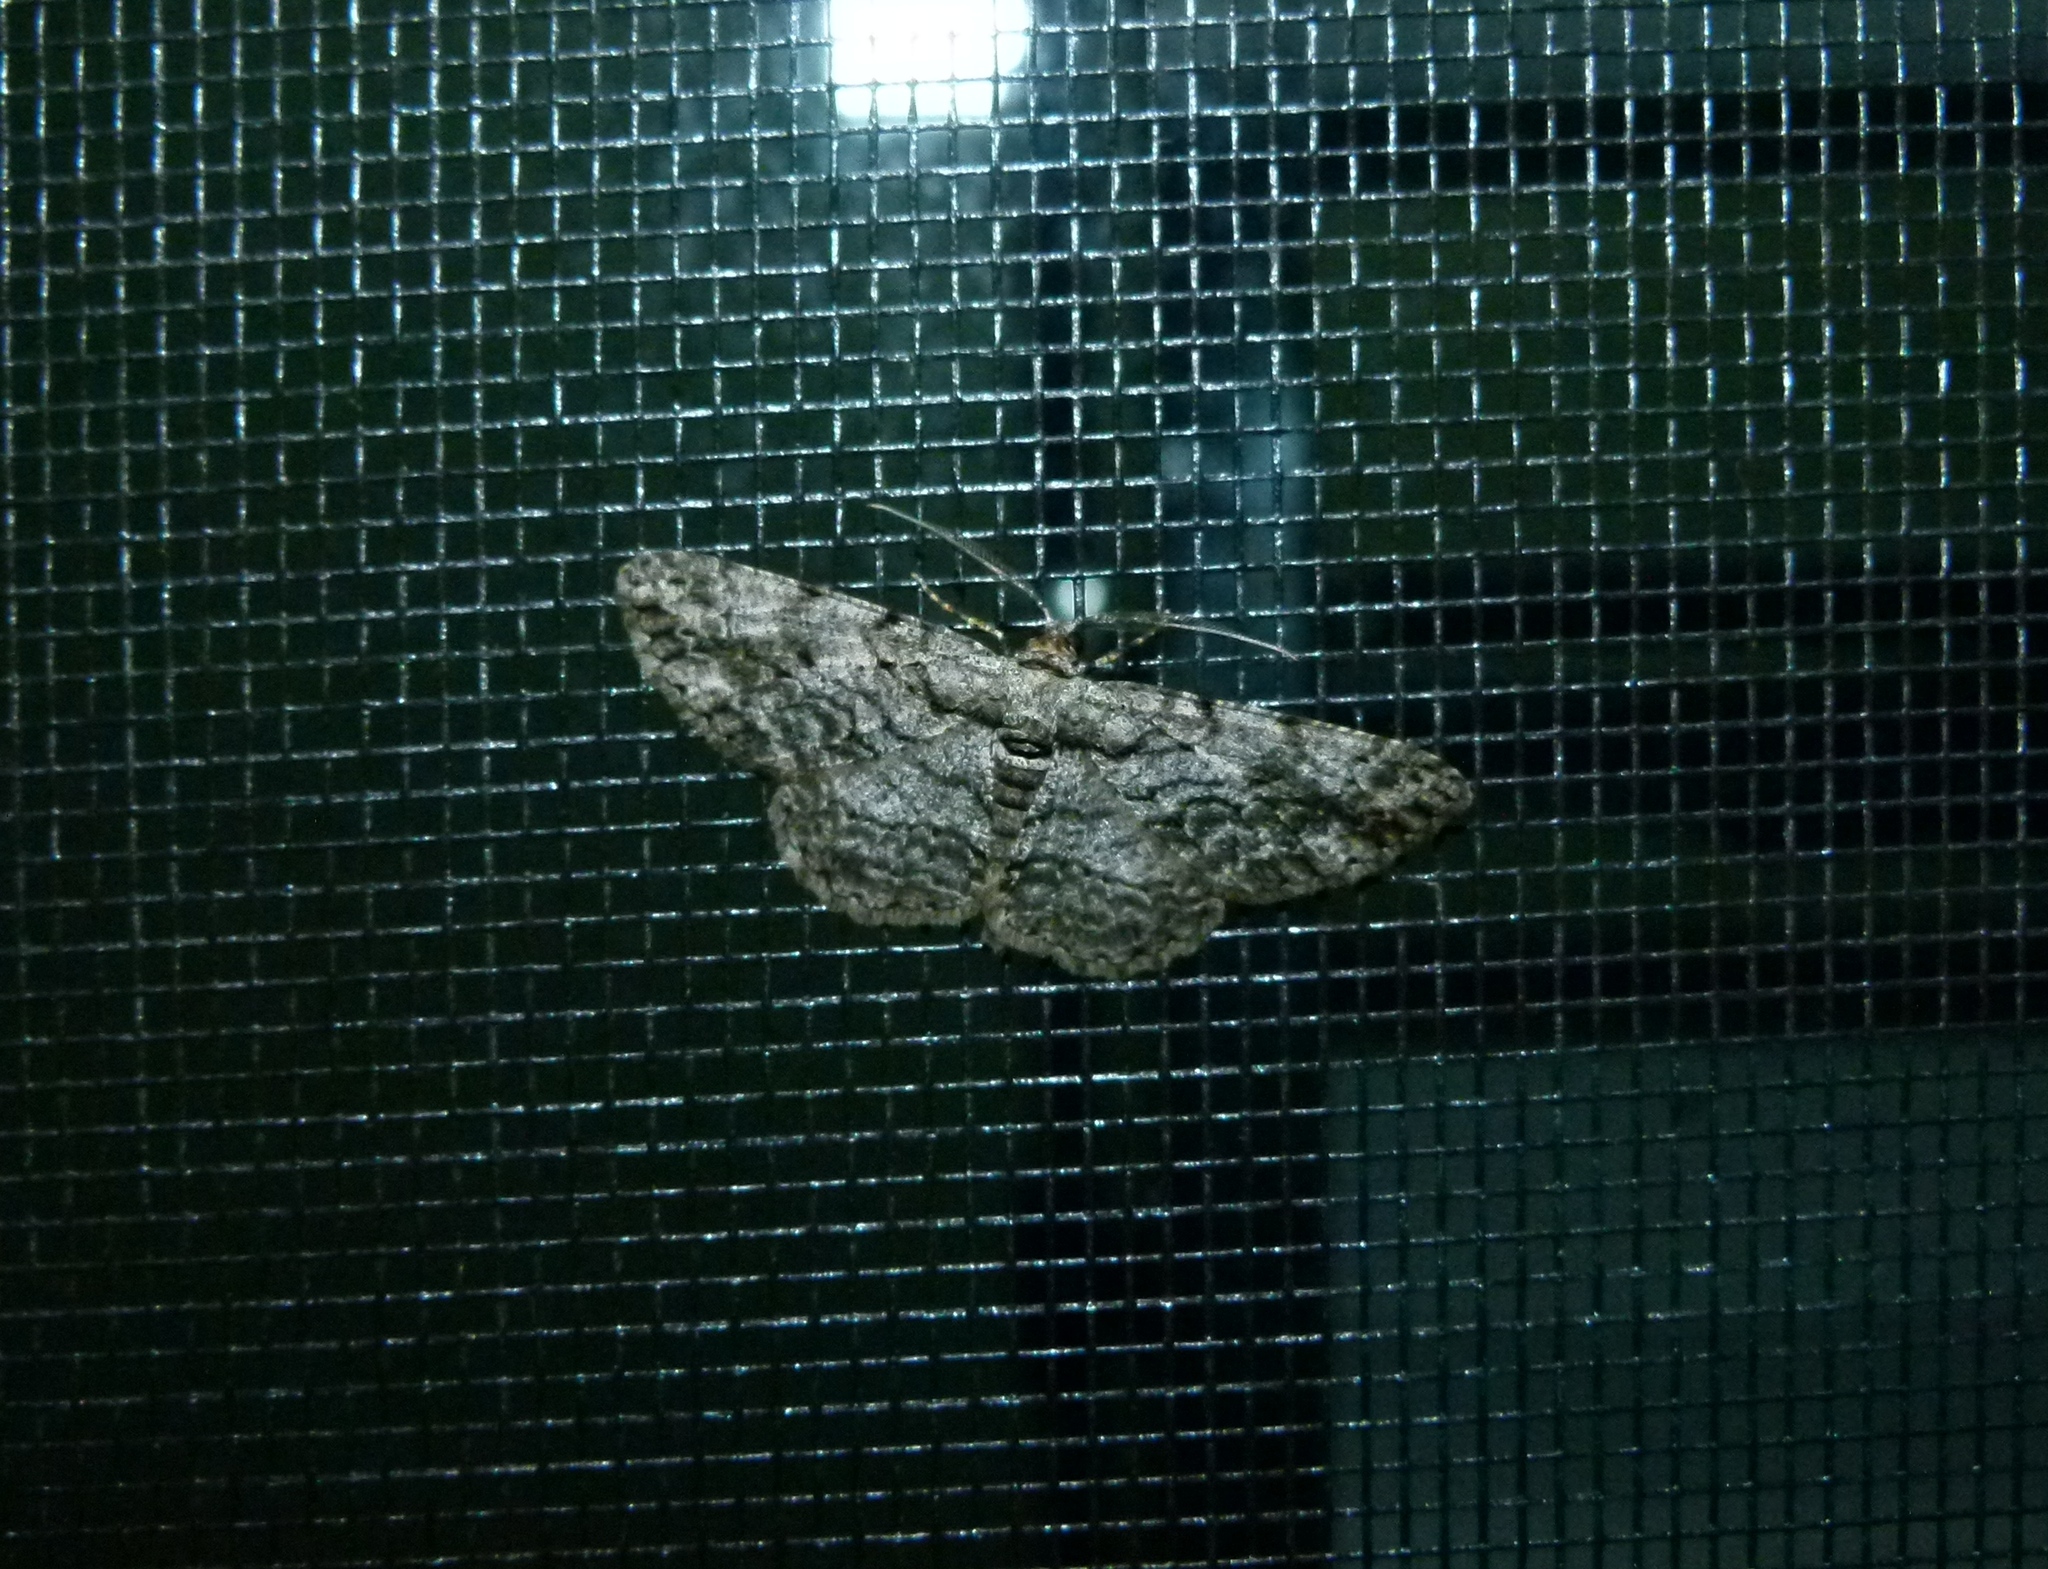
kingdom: Animalia
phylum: Arthropoda
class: Insecta
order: Lepidoptera
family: Geometridae
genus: Anavitrinella
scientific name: Anavitrinella pampinaria
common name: Common gray
